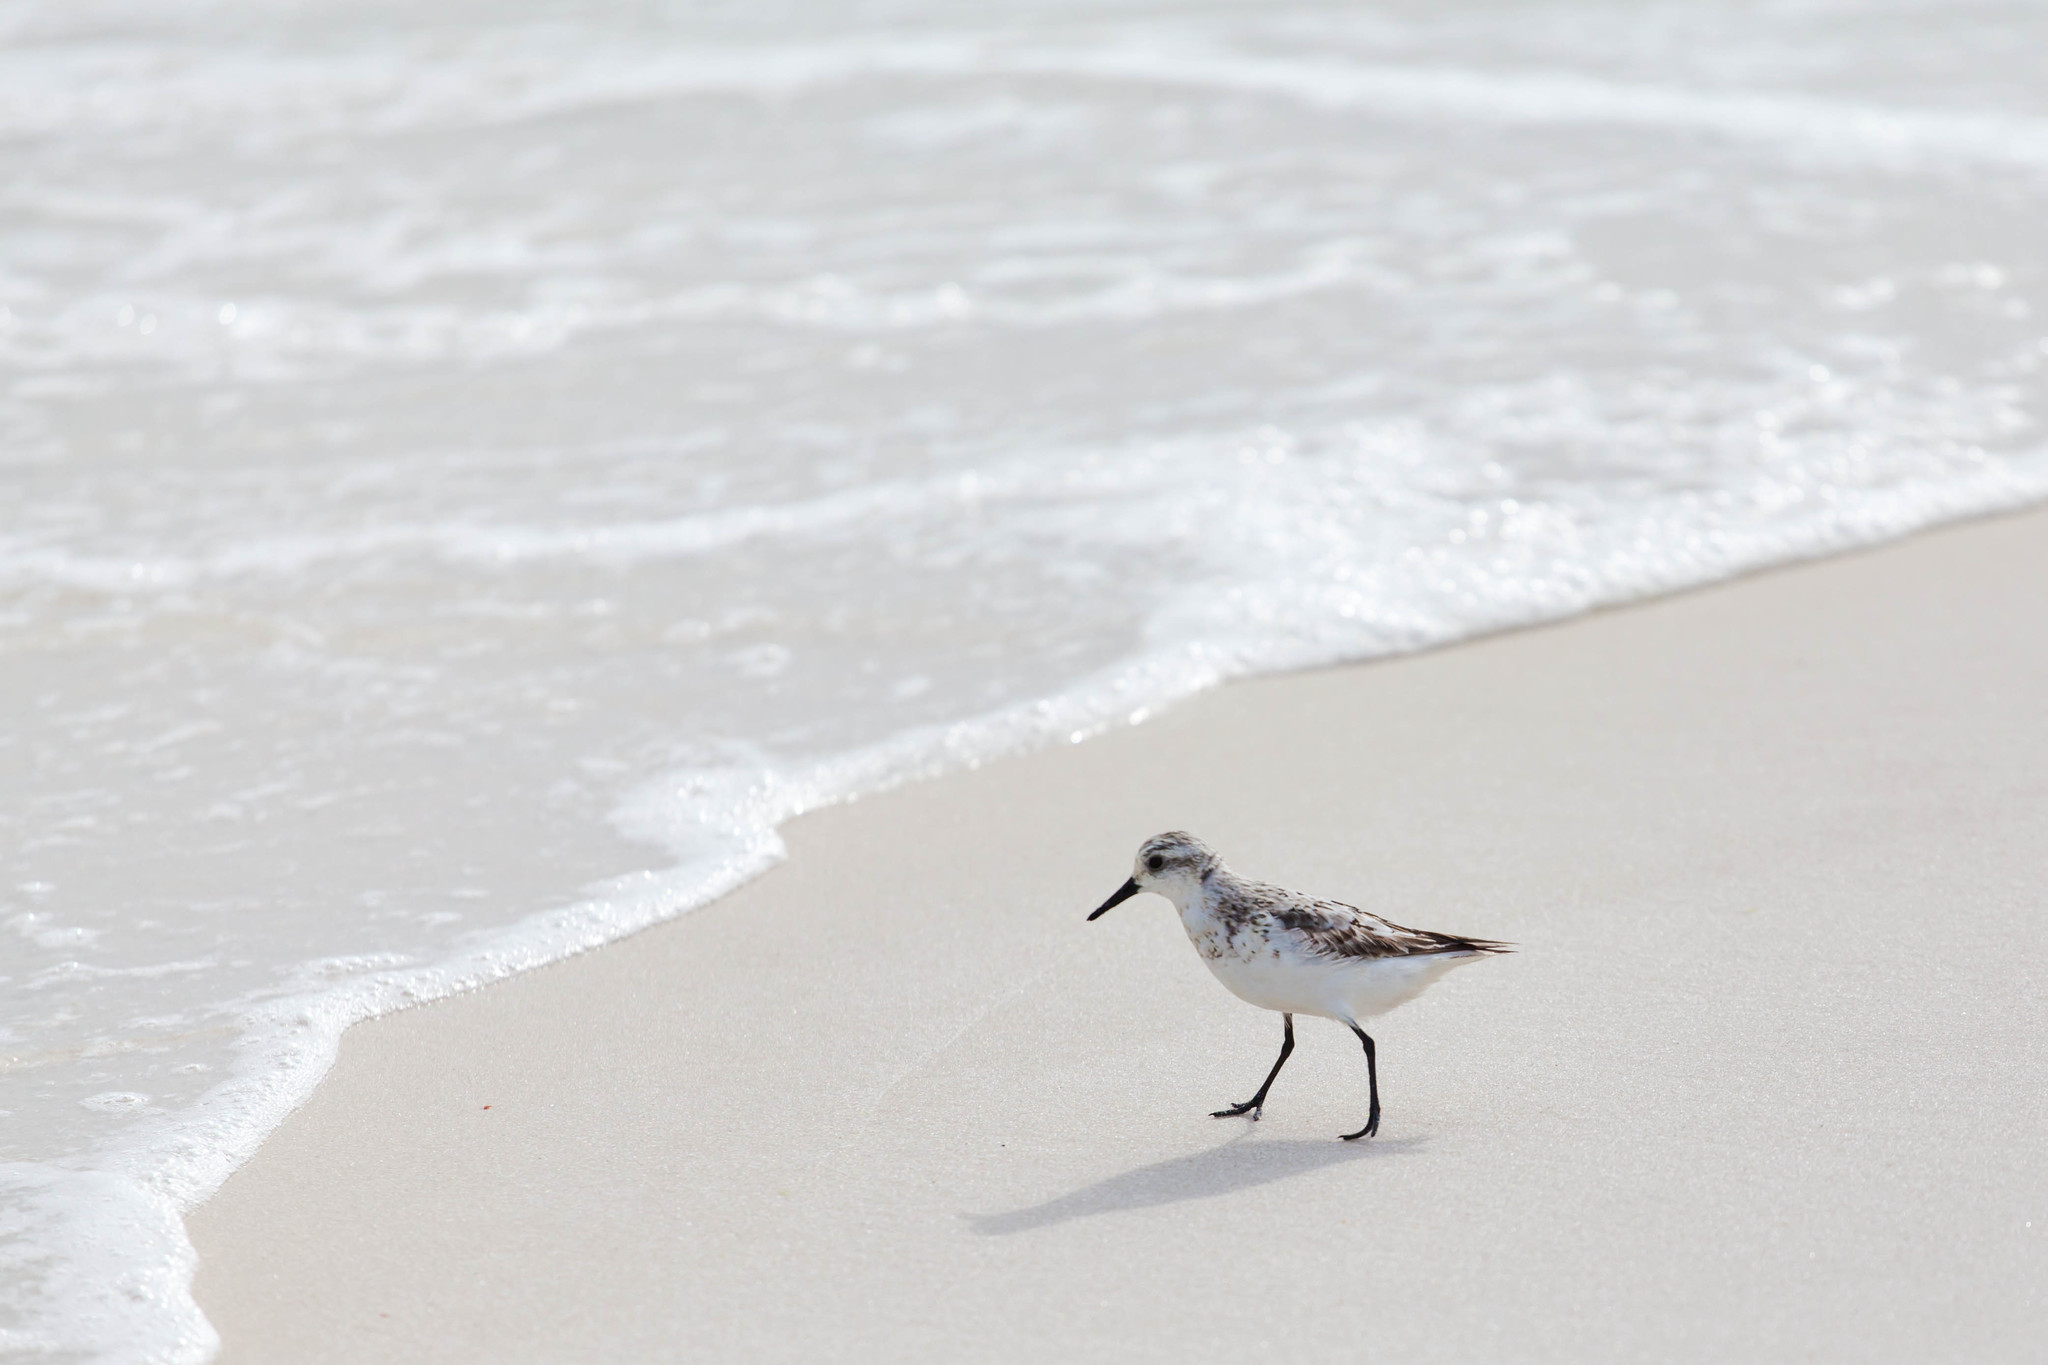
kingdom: Animalia
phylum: Chordata
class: Aves
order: Charadriiformes
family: Scolopacidae
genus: Calidris
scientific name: Calidris alba
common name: Sanderling
